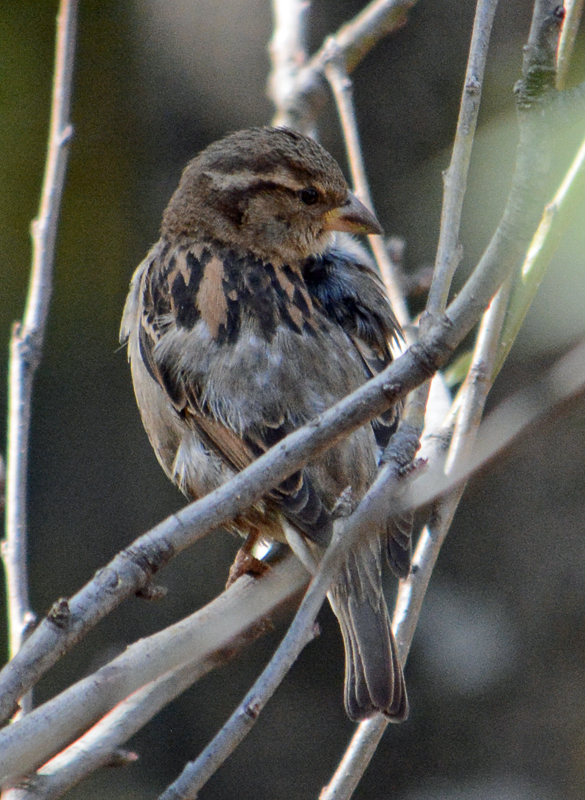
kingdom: Animalia
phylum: Chordata
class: Aves
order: Passeriformes
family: Passeridae
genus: Passer
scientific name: Passer domesticus
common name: House sparrow
